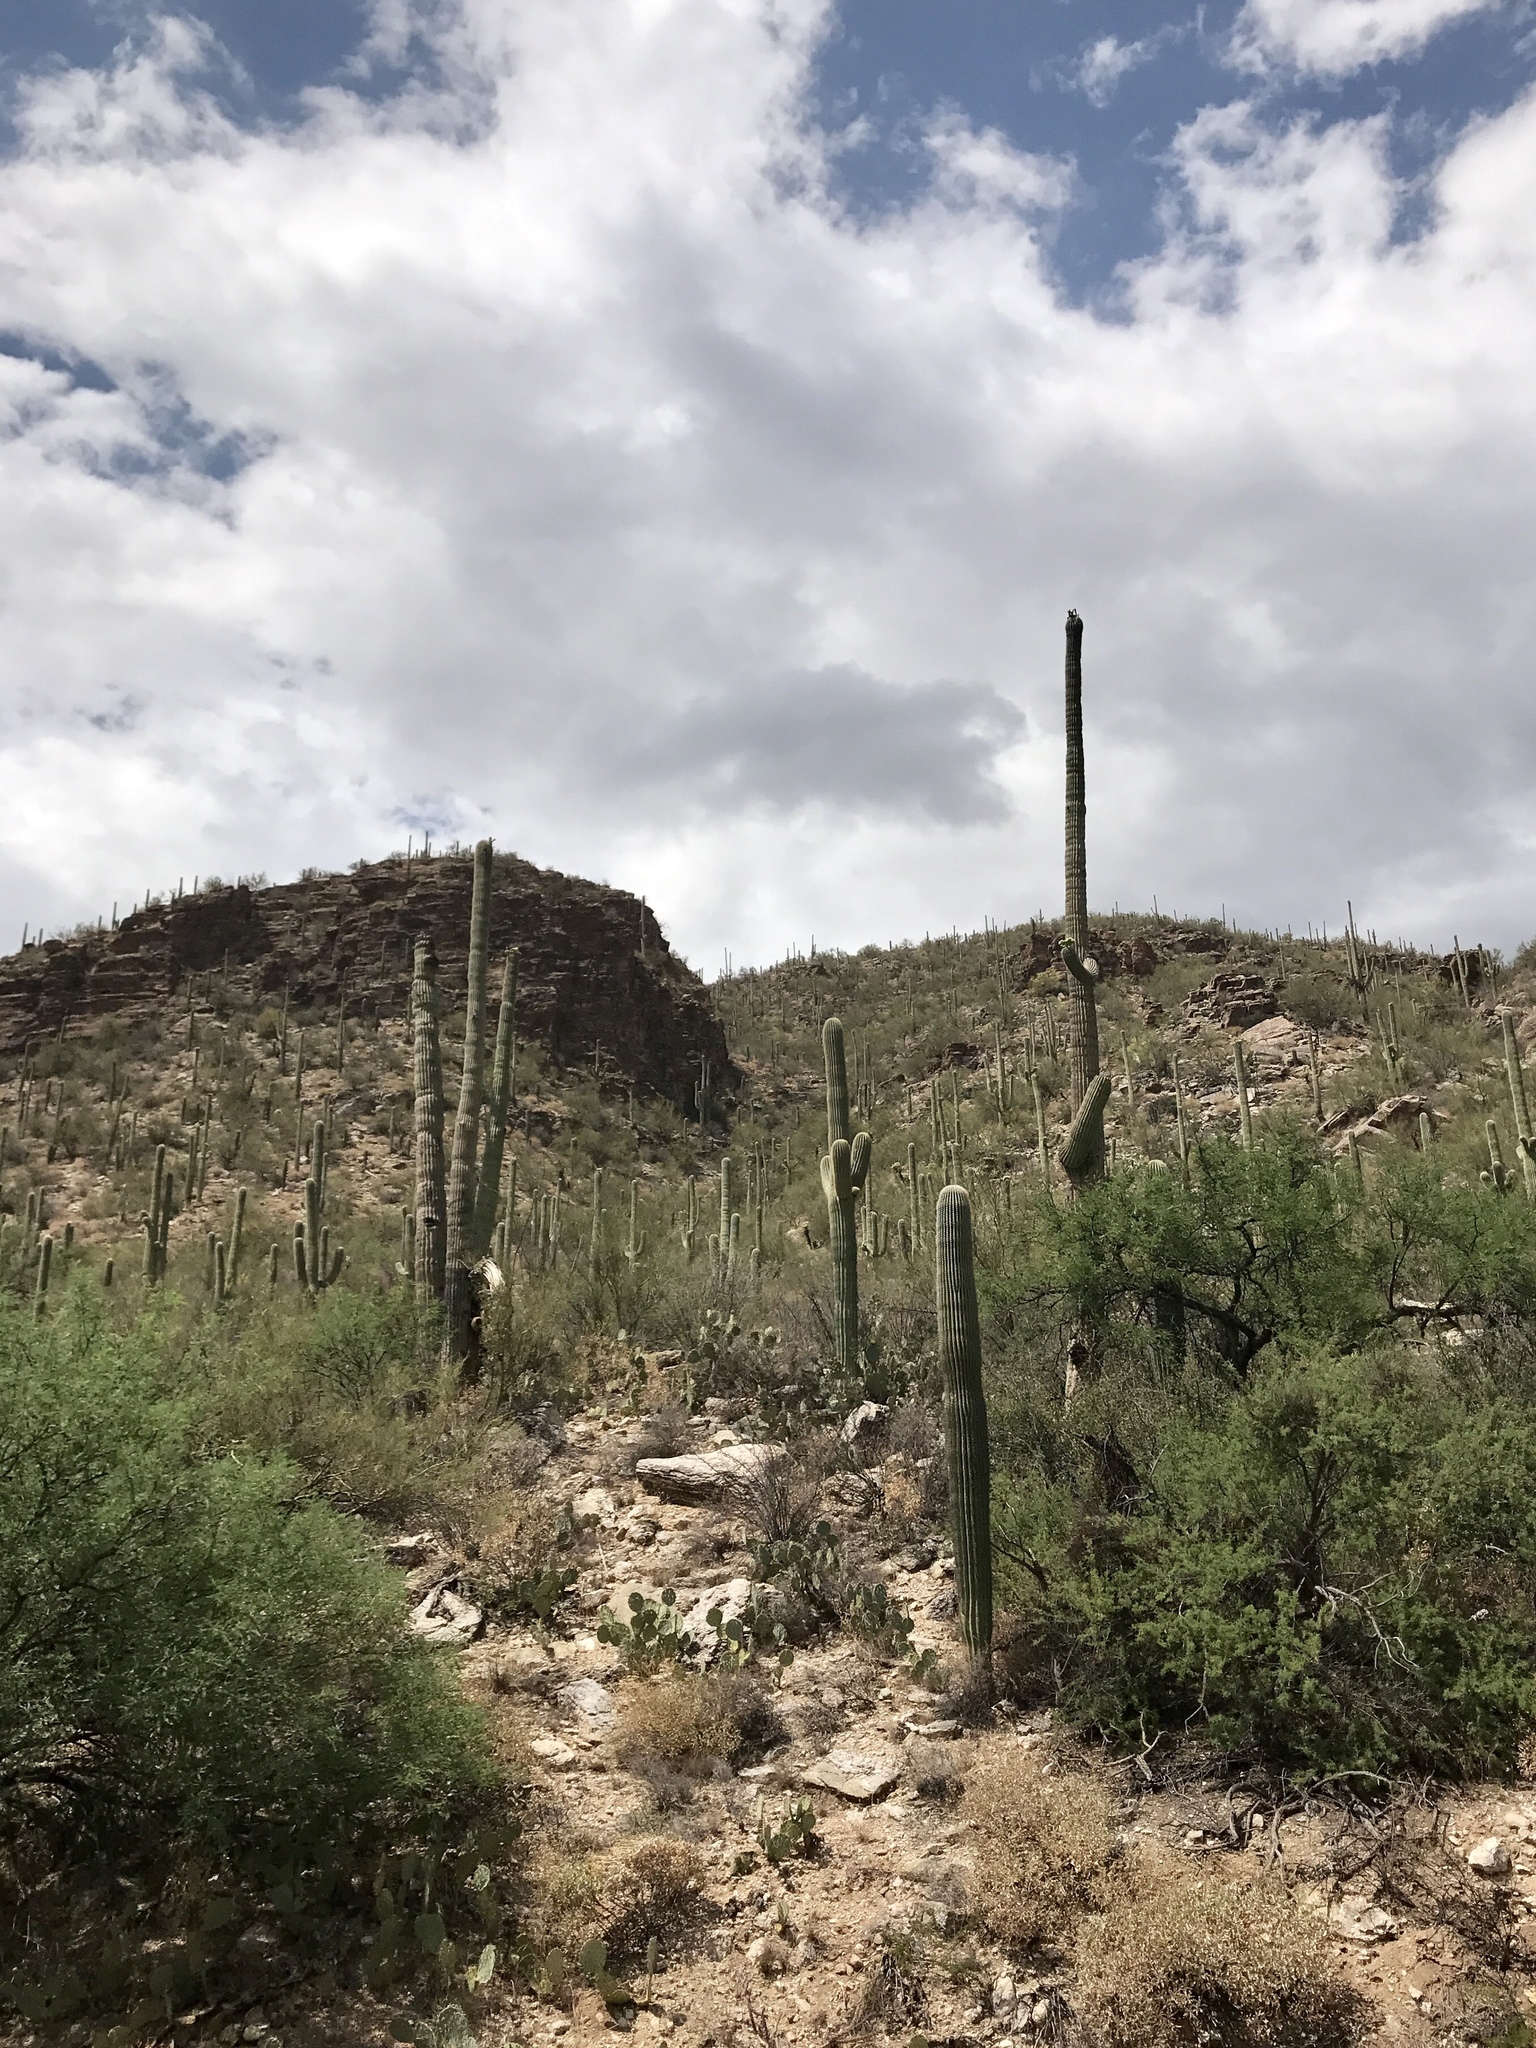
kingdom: Plantae
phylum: Tracheophyta
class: Magnoliopsida
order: Caryophyllales
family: Cactaceae
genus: Carnegiea
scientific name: Carnegiea gigantea
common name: Saguaro
